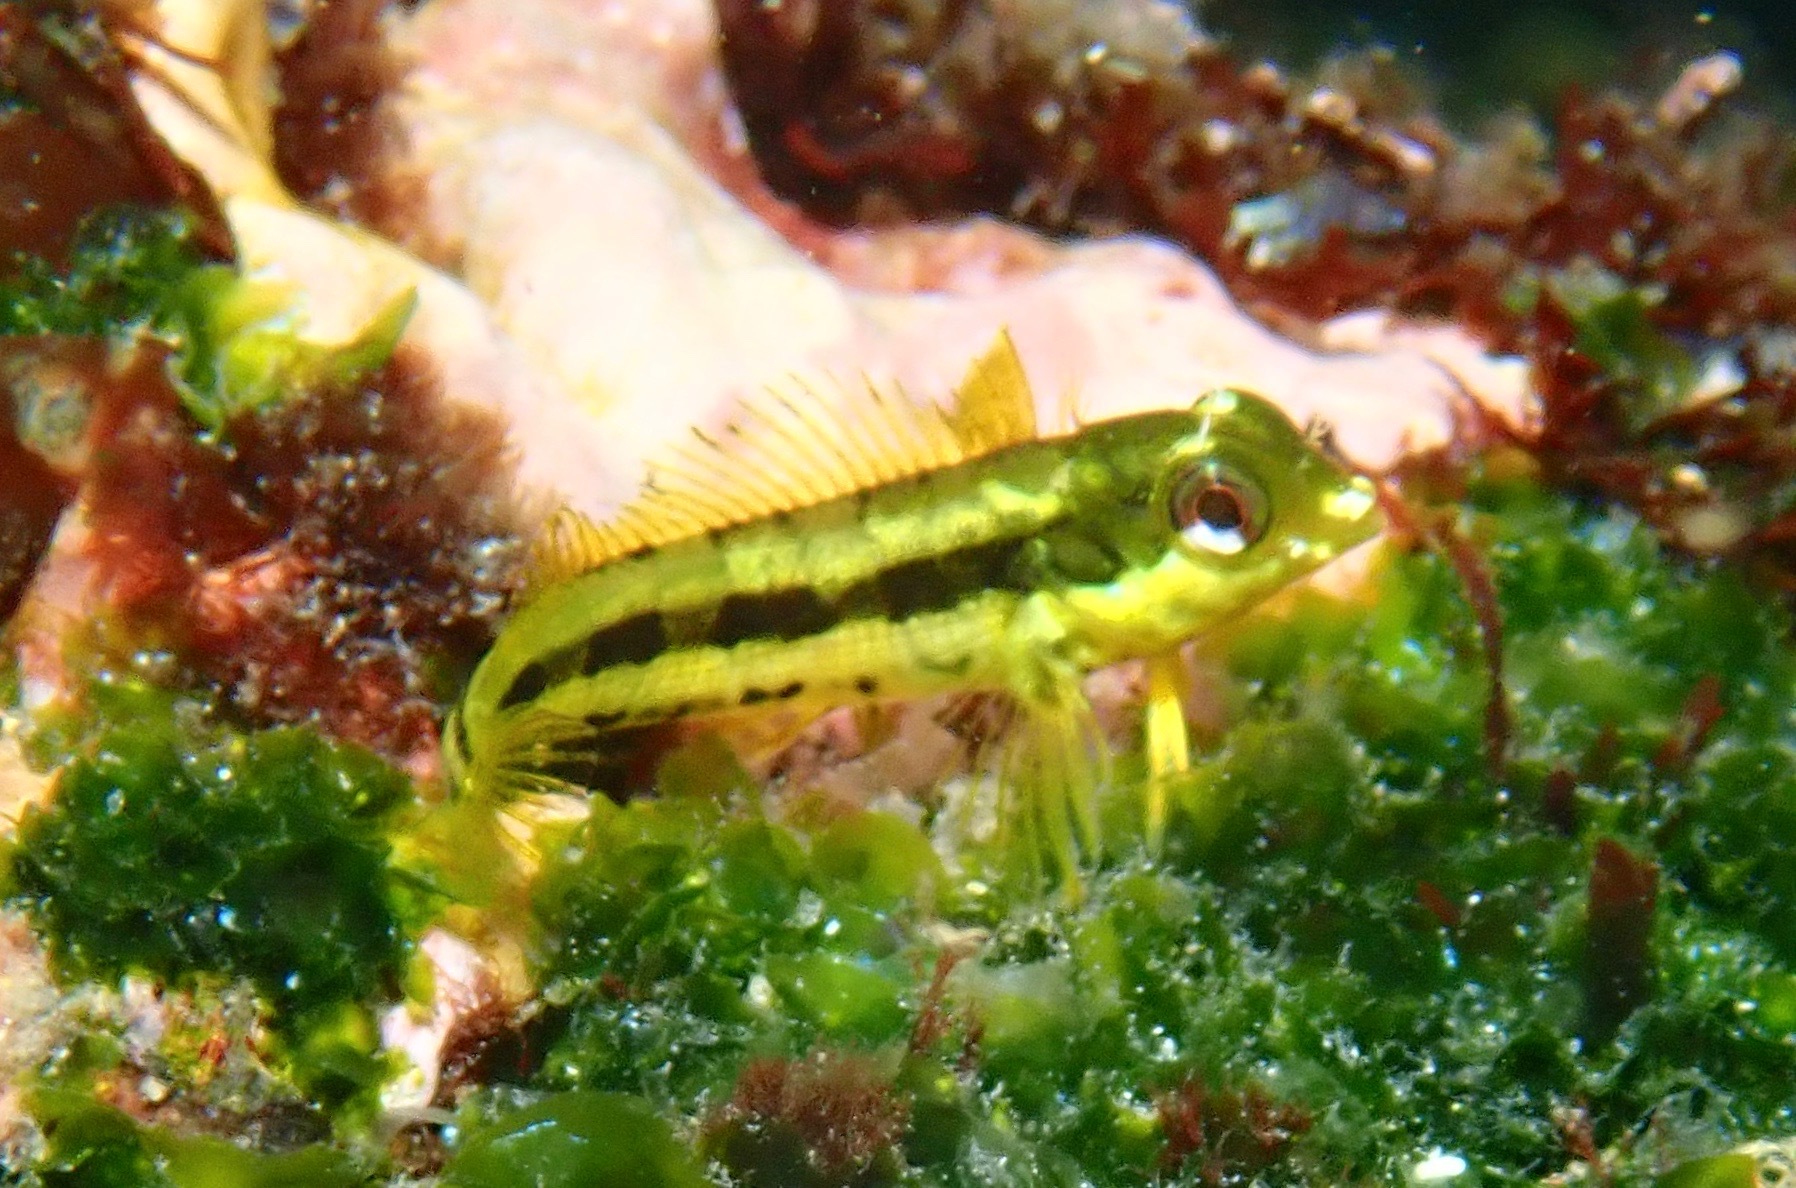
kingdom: Animalia
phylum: Chordata
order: Perciformes
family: Labrisomidae
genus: Malacoctenus
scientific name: Malacoctenus zonogaster
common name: Belted blenny
